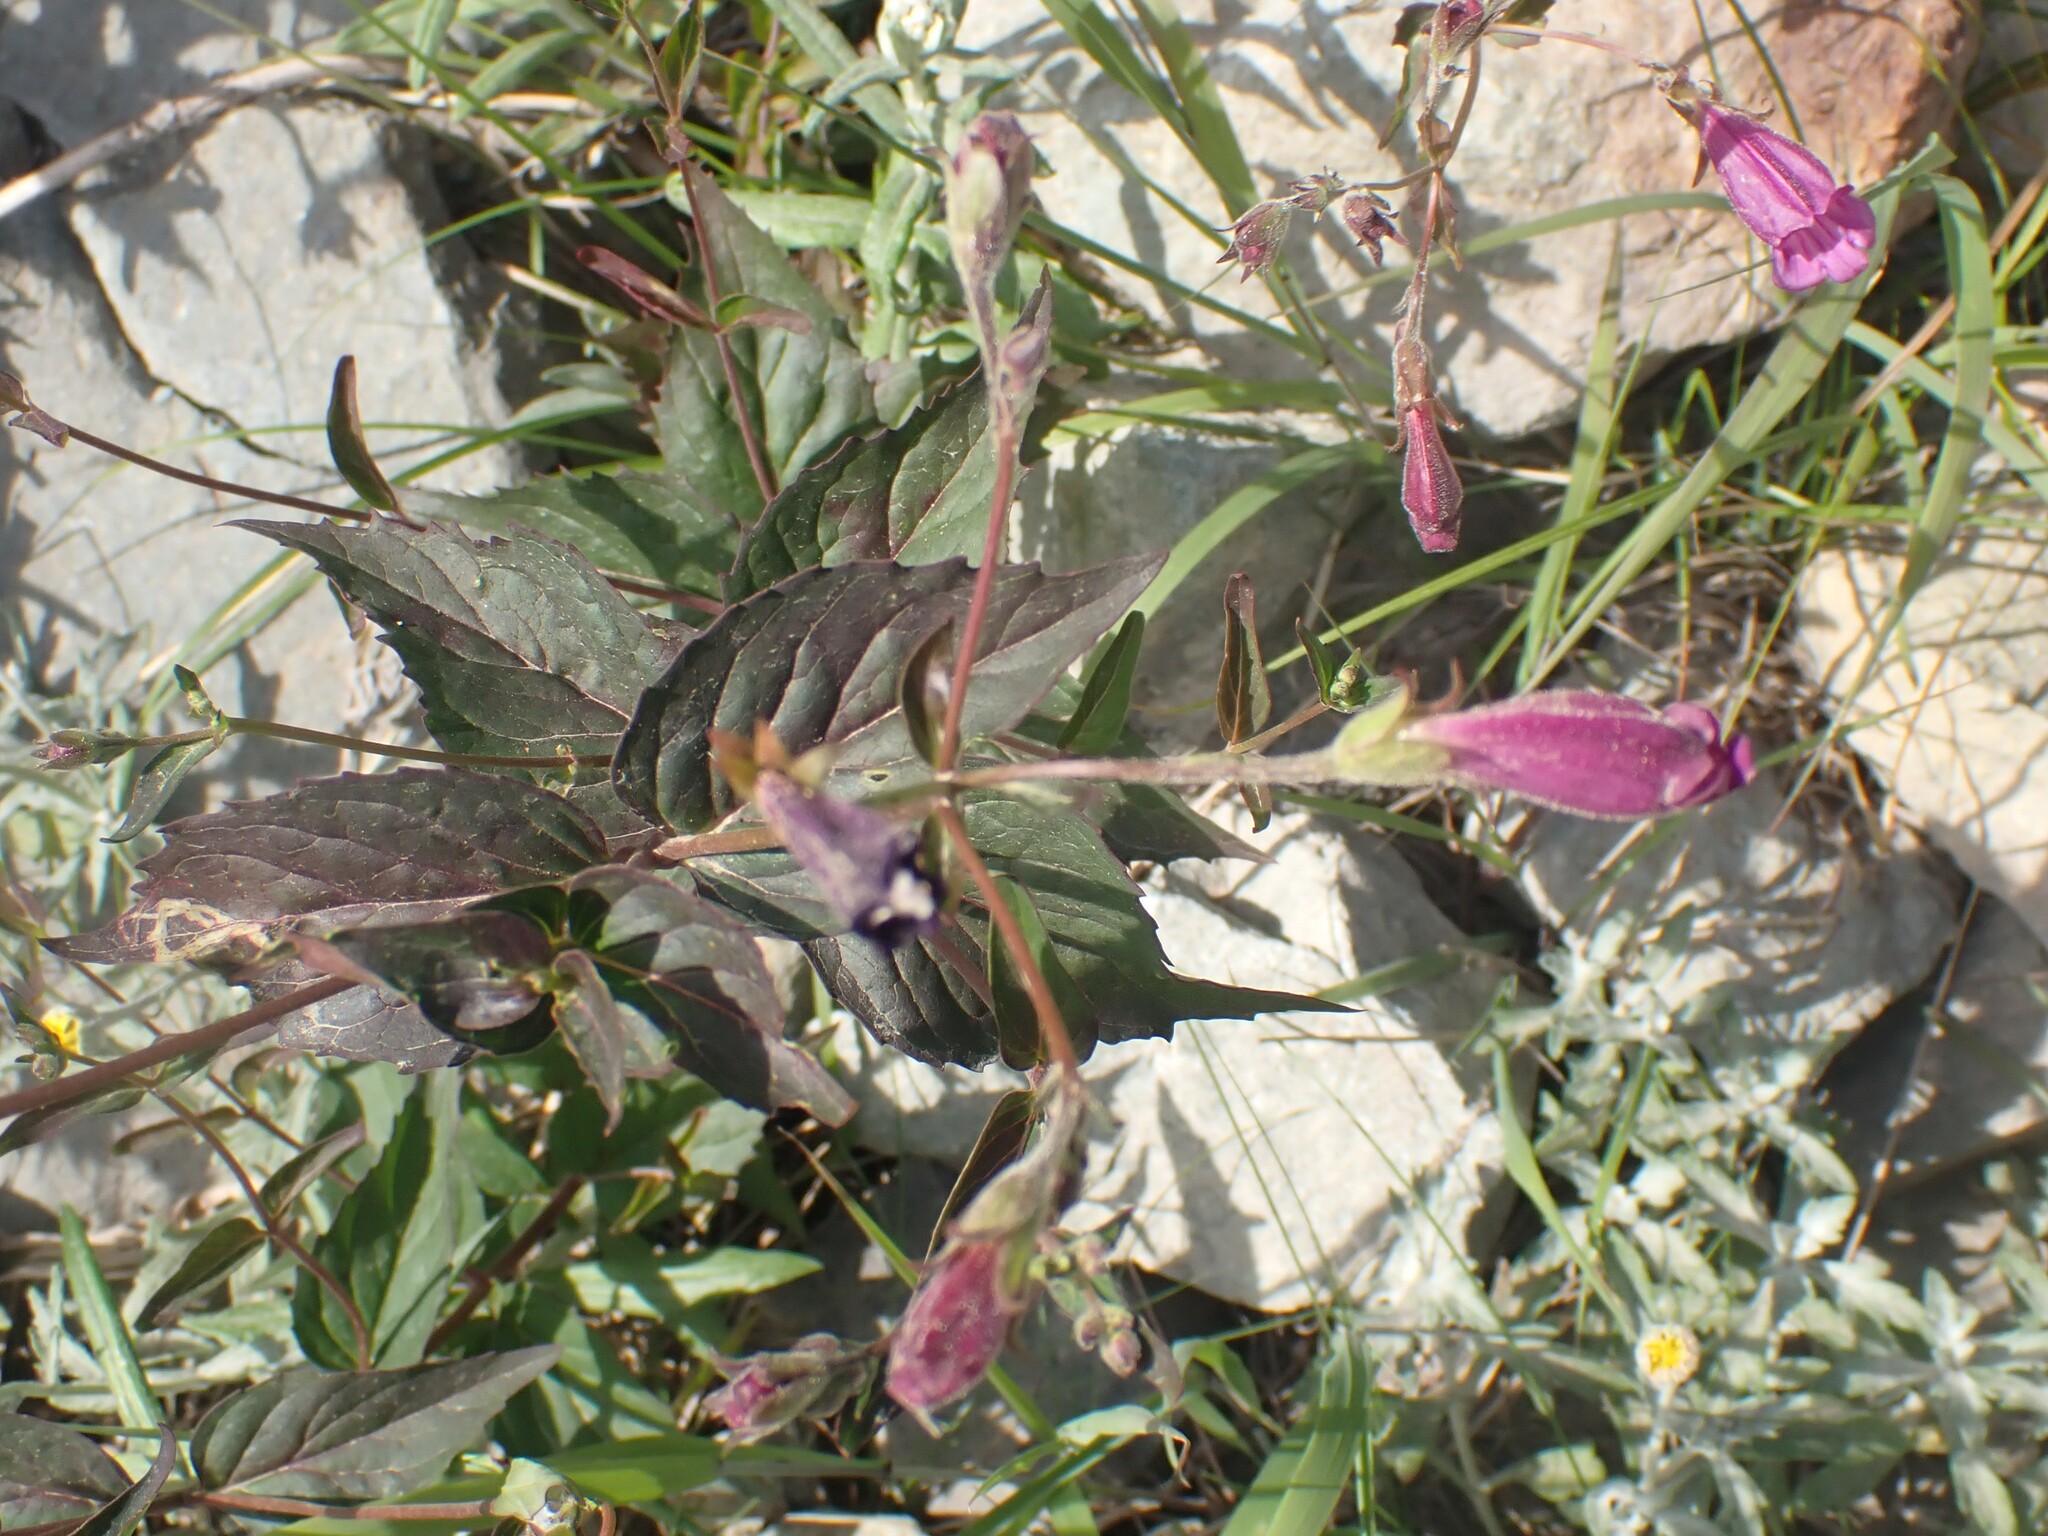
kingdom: Plantae
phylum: Tracheophyta
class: Magnoliopsida
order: Lamiales
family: Plantaginaceae
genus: Nothochelone
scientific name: Nothochelone nemorosa
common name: Woodland beardtongue
